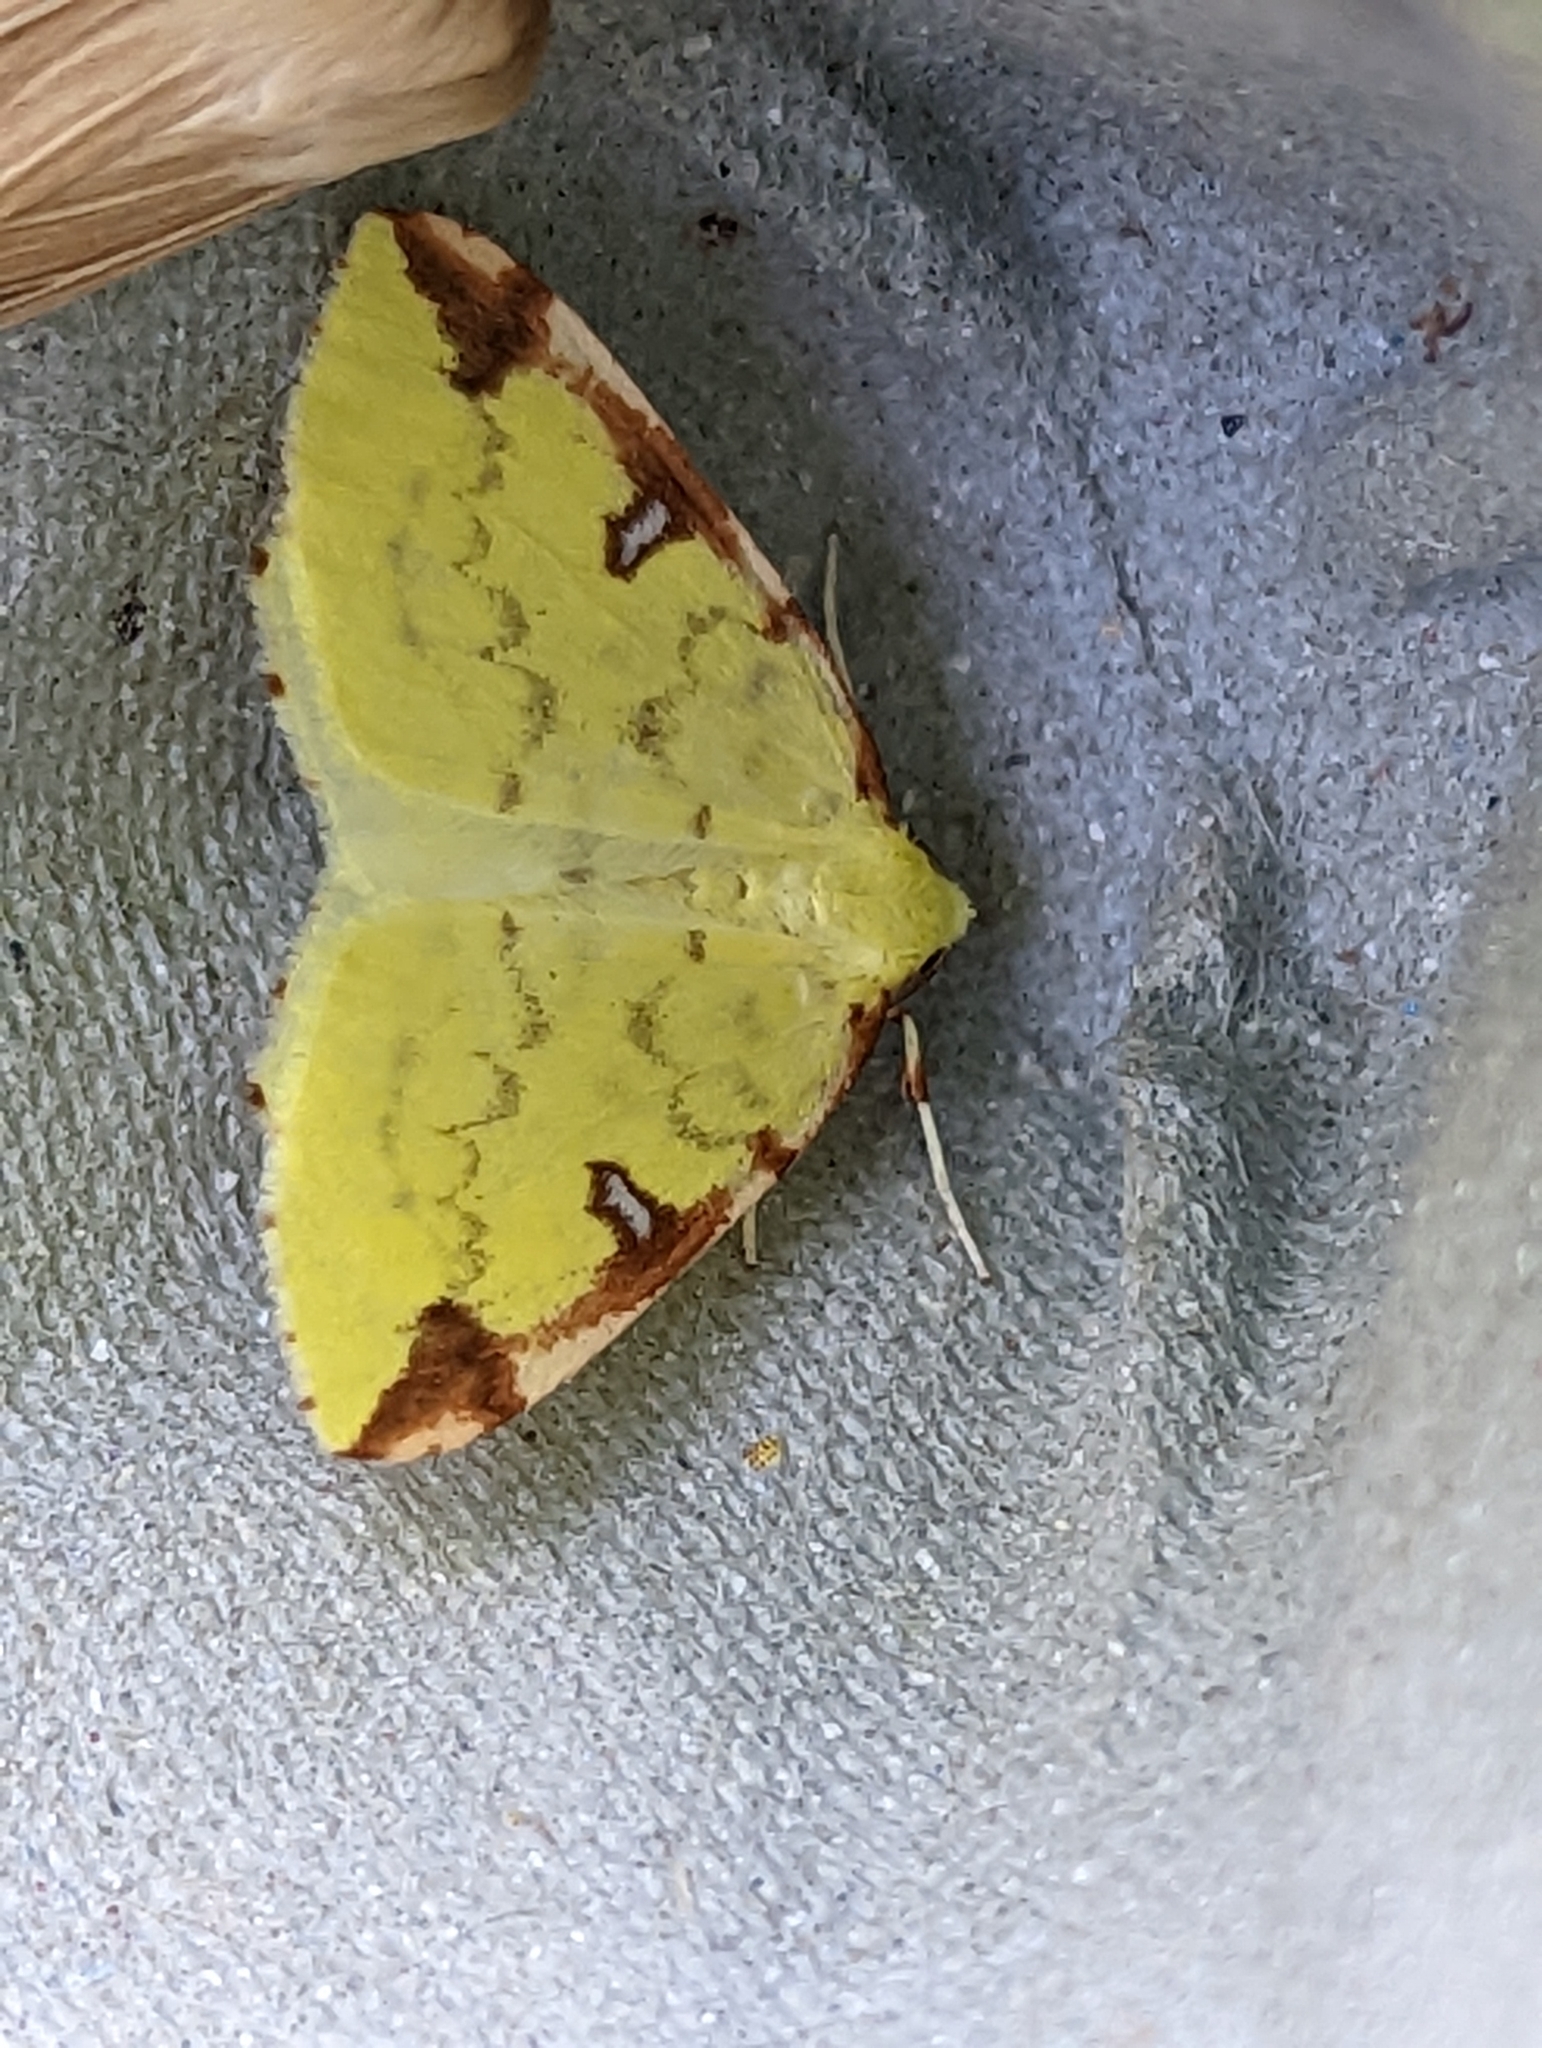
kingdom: Animalia
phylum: Arthropoda
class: Insecta
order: Lepidoptera
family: Geometridae
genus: Opisthograptis
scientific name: Opisthograptis luteolata
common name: Brimstone moth
